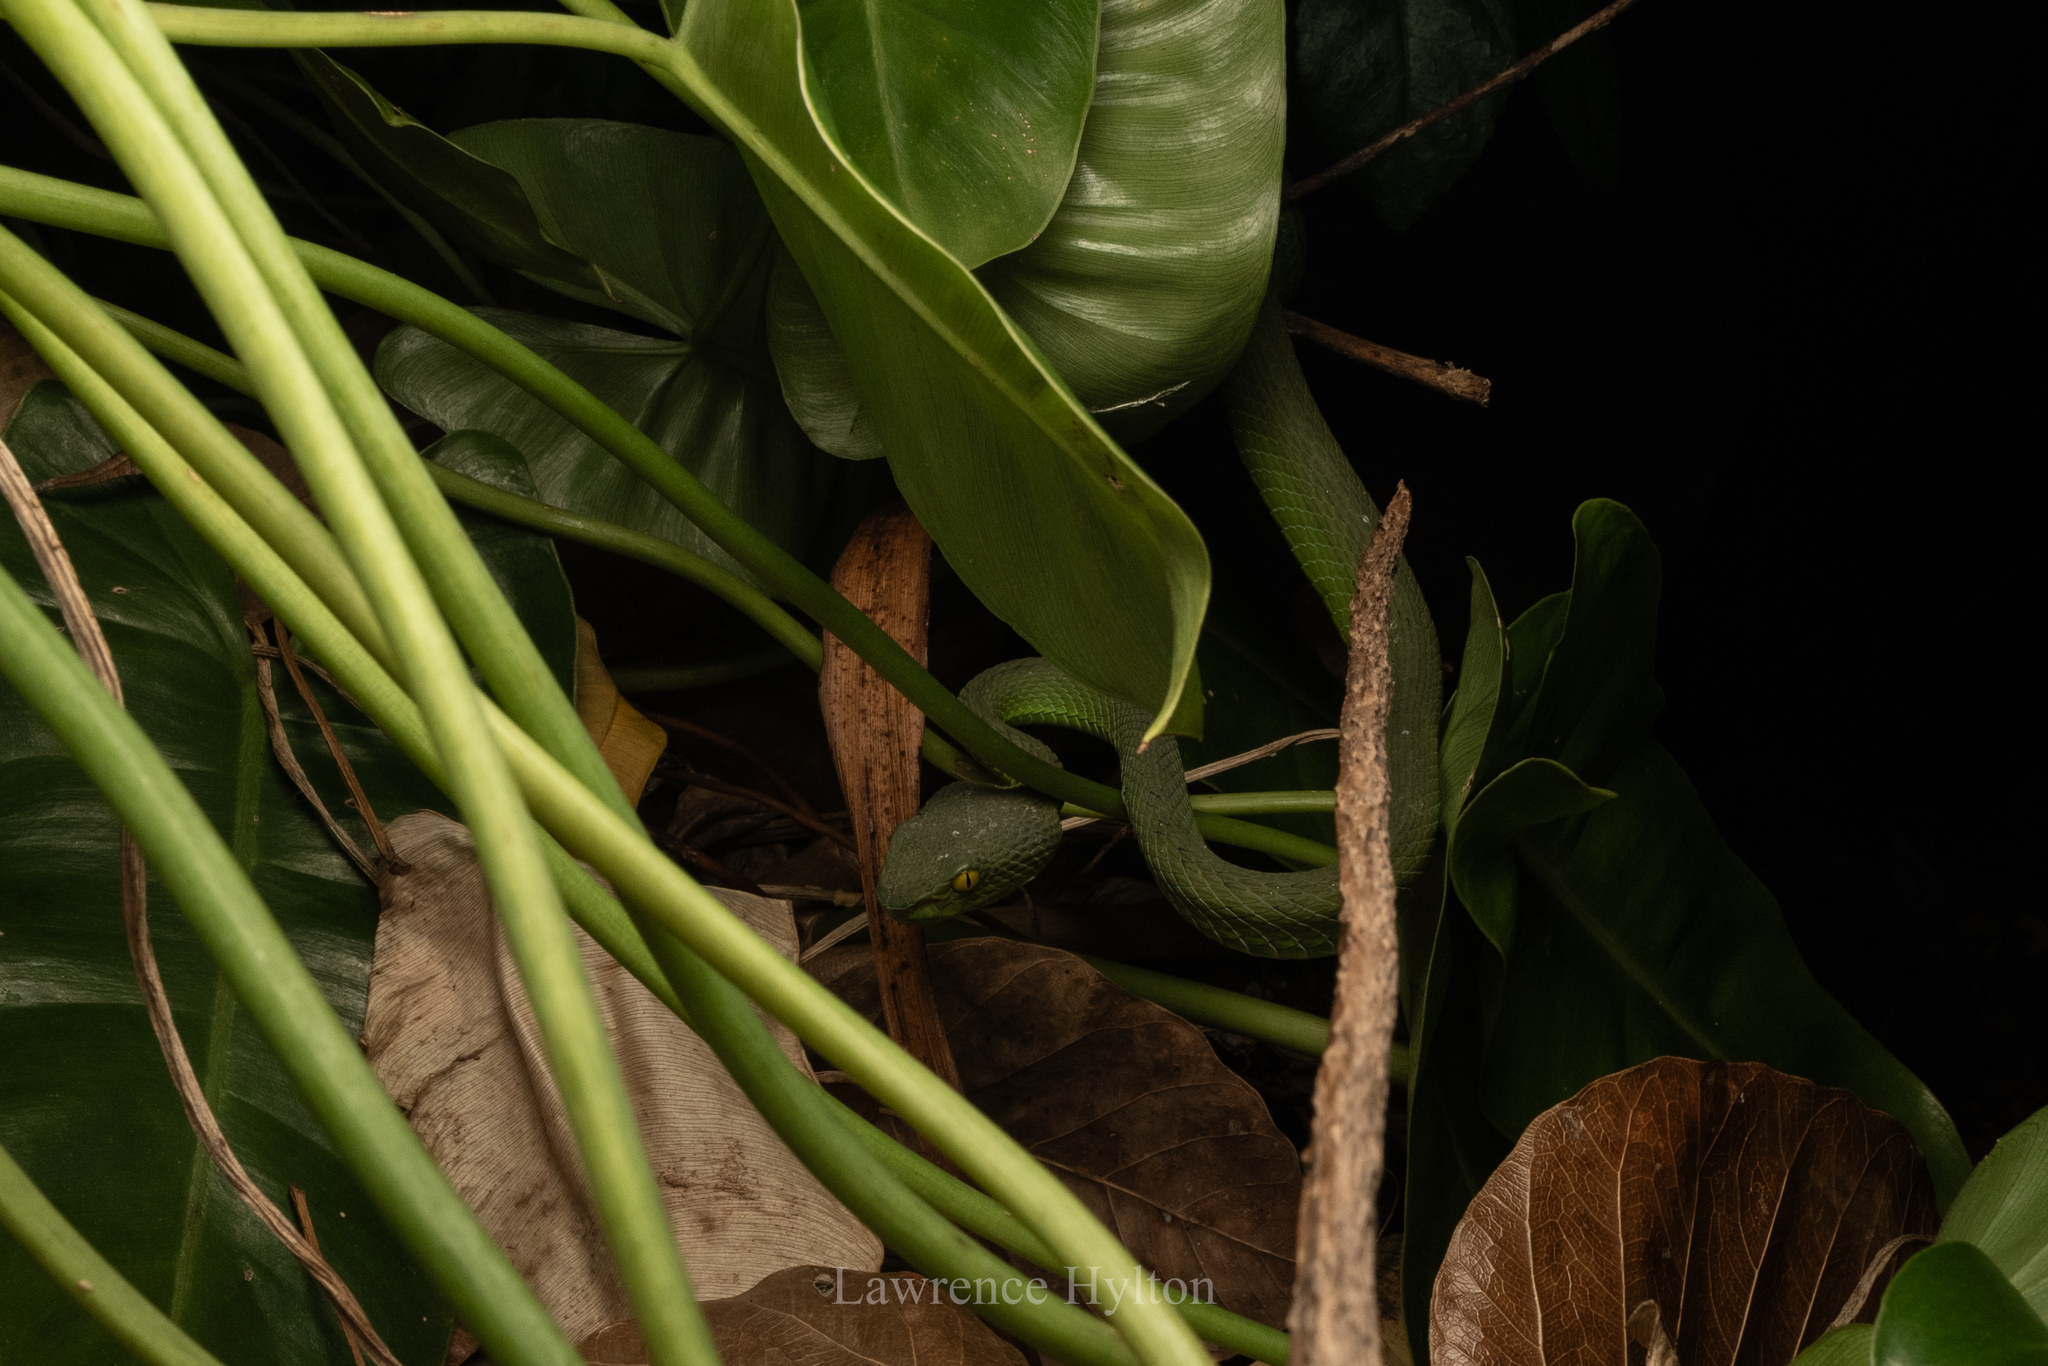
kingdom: Animalia
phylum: Chordata
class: Squamata
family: Viperidae
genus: Trimeresurus
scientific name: Trimeresurus macrops
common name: Kramer's pit viper
